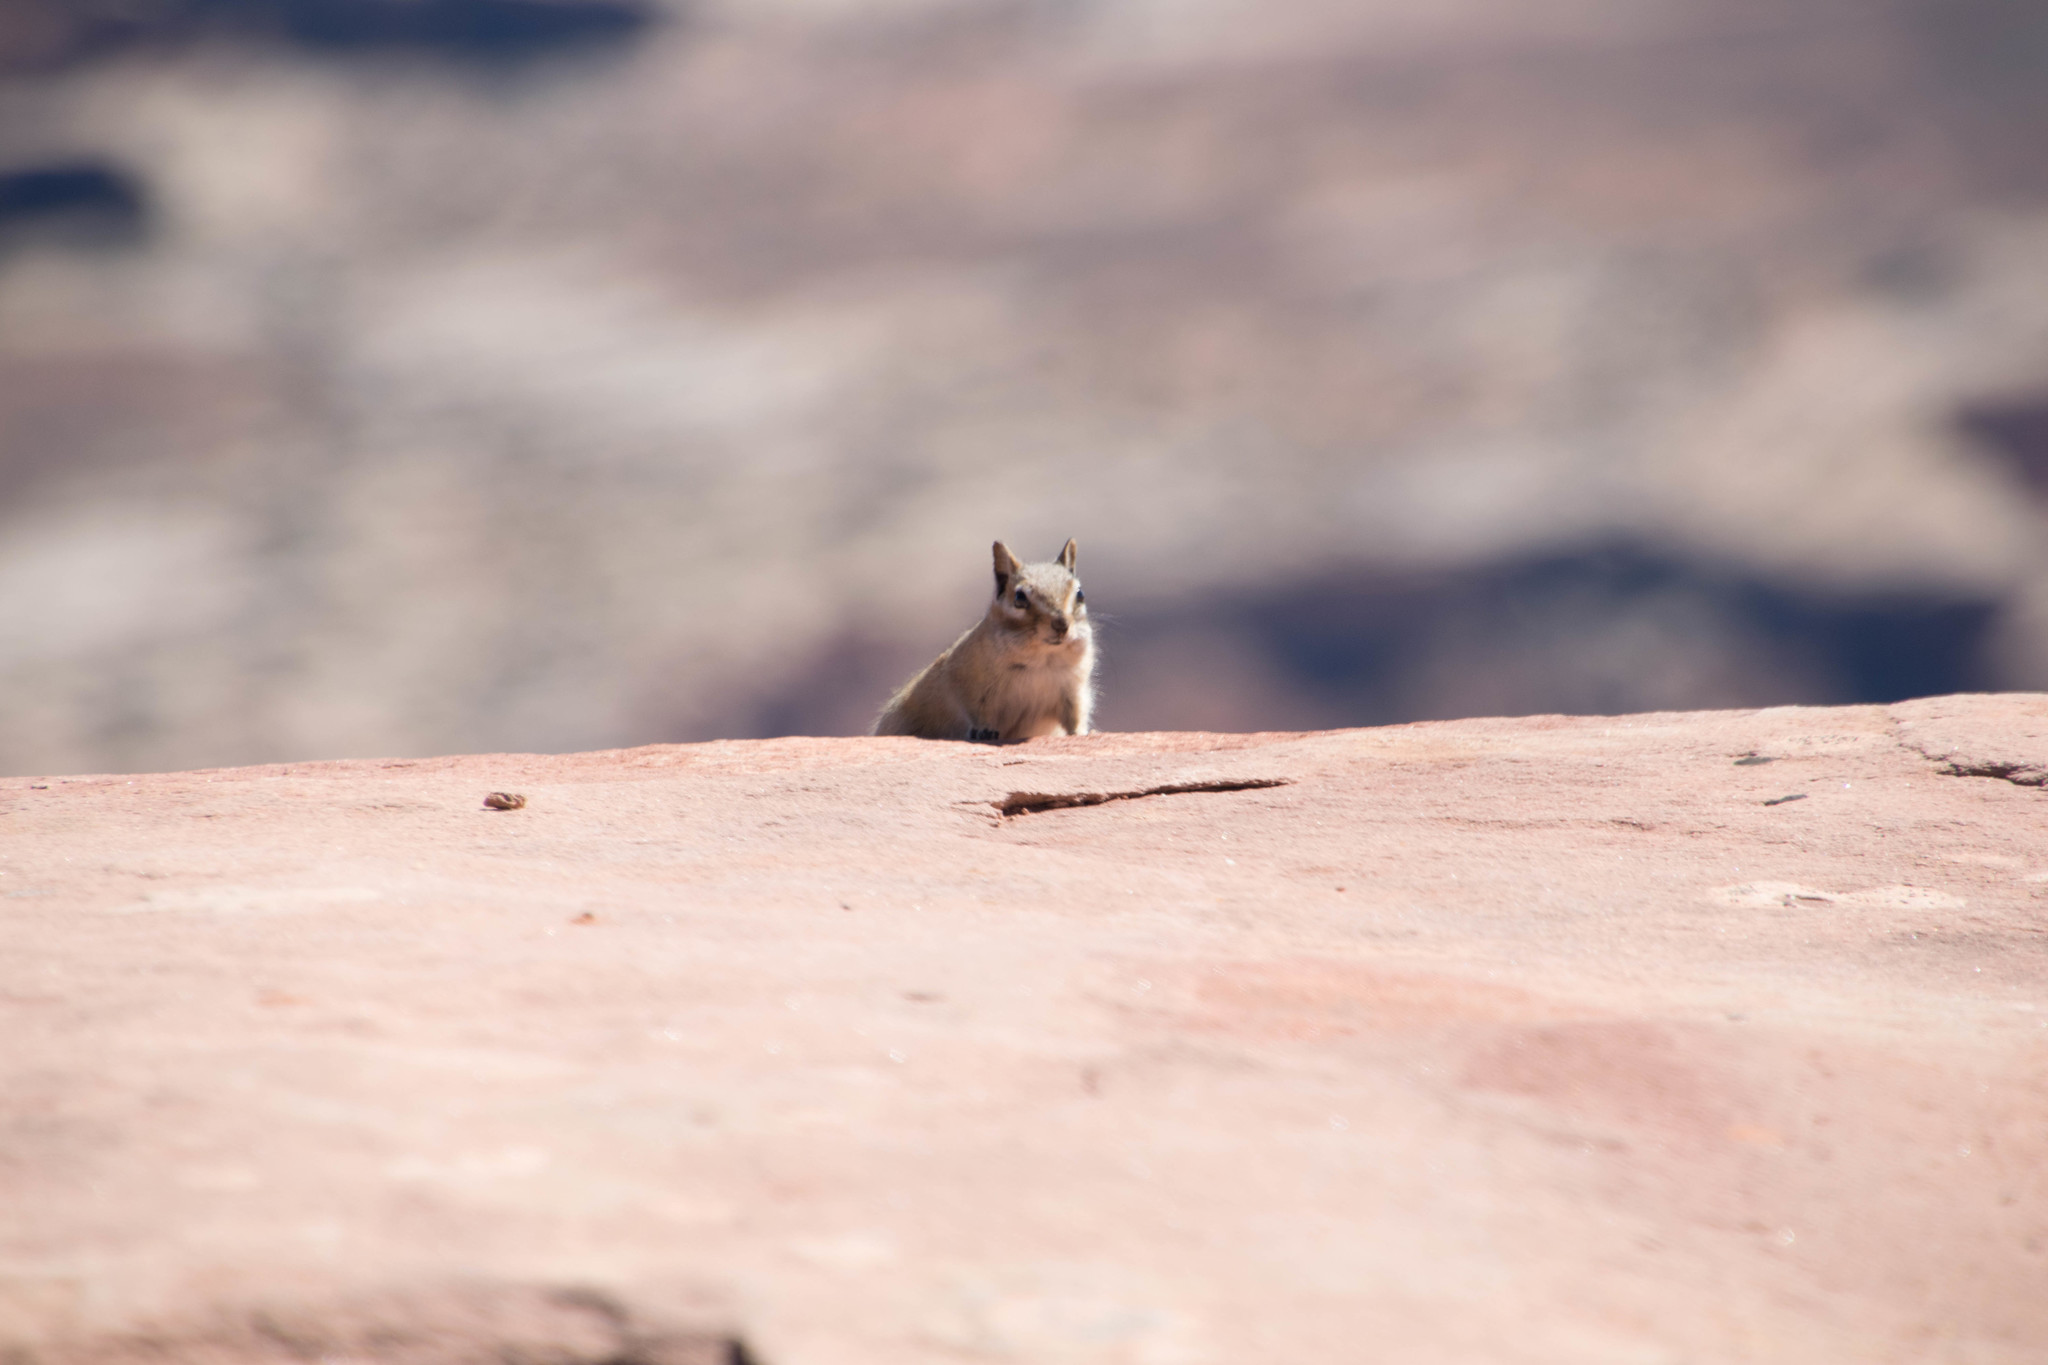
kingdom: Animalia
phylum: Chordata
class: Mammalia
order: Rodentia
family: Sciuridae
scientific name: Sciuridae
